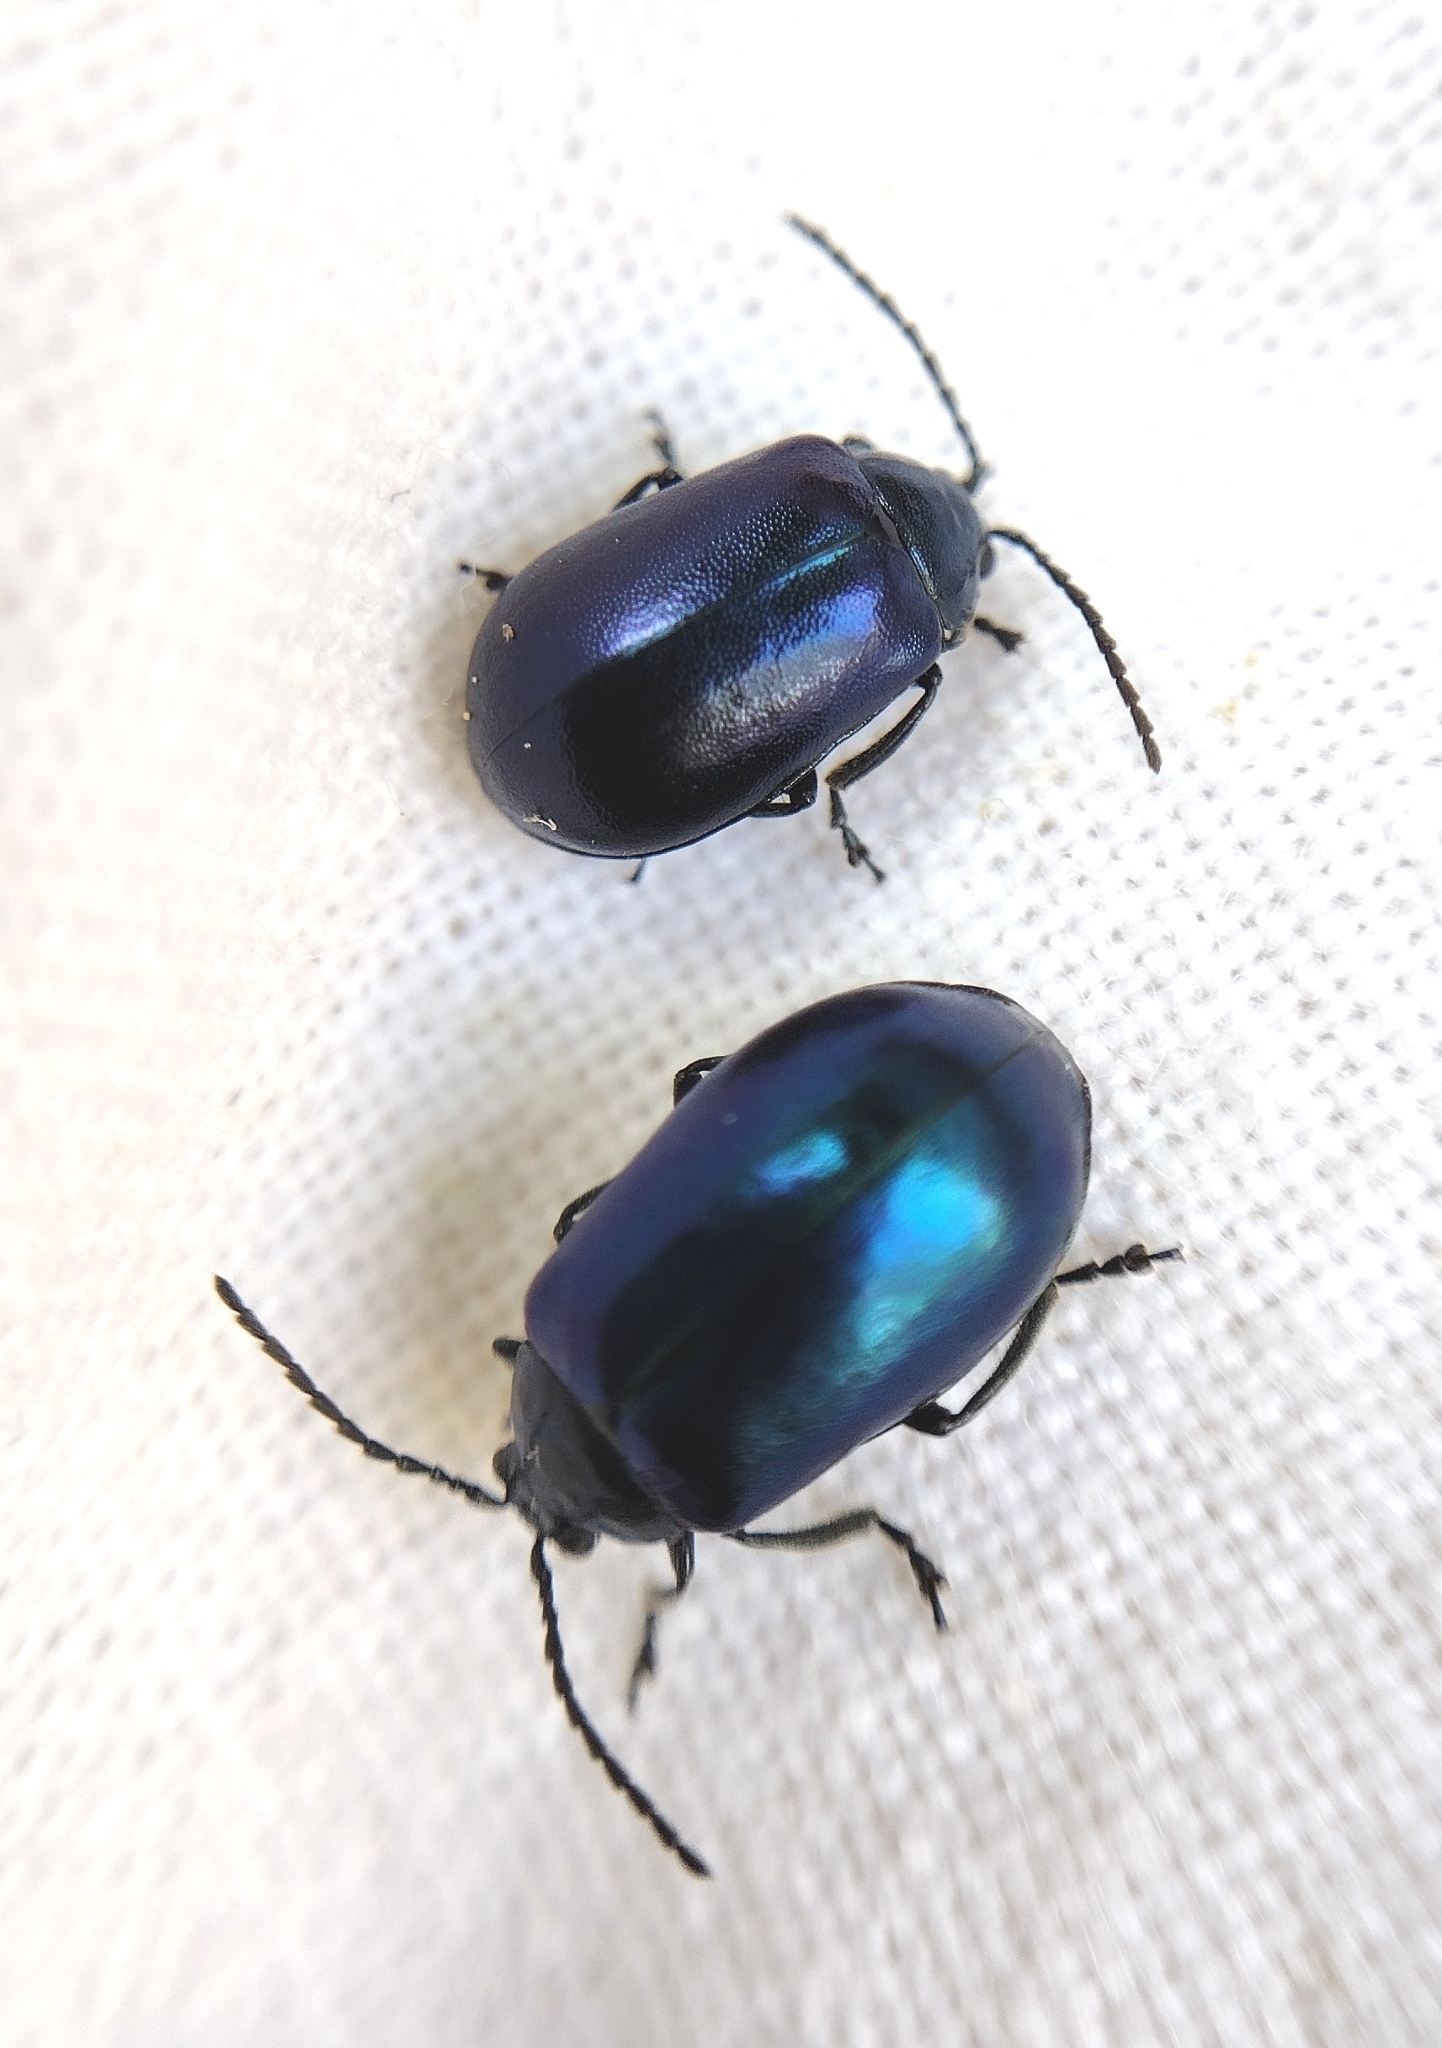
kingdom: Animalia
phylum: Arthropoda
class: Insecta
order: Coleoptera
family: Chrysomelidae
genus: Agelastica
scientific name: Agelastica alni
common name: Alder leaf beetle
